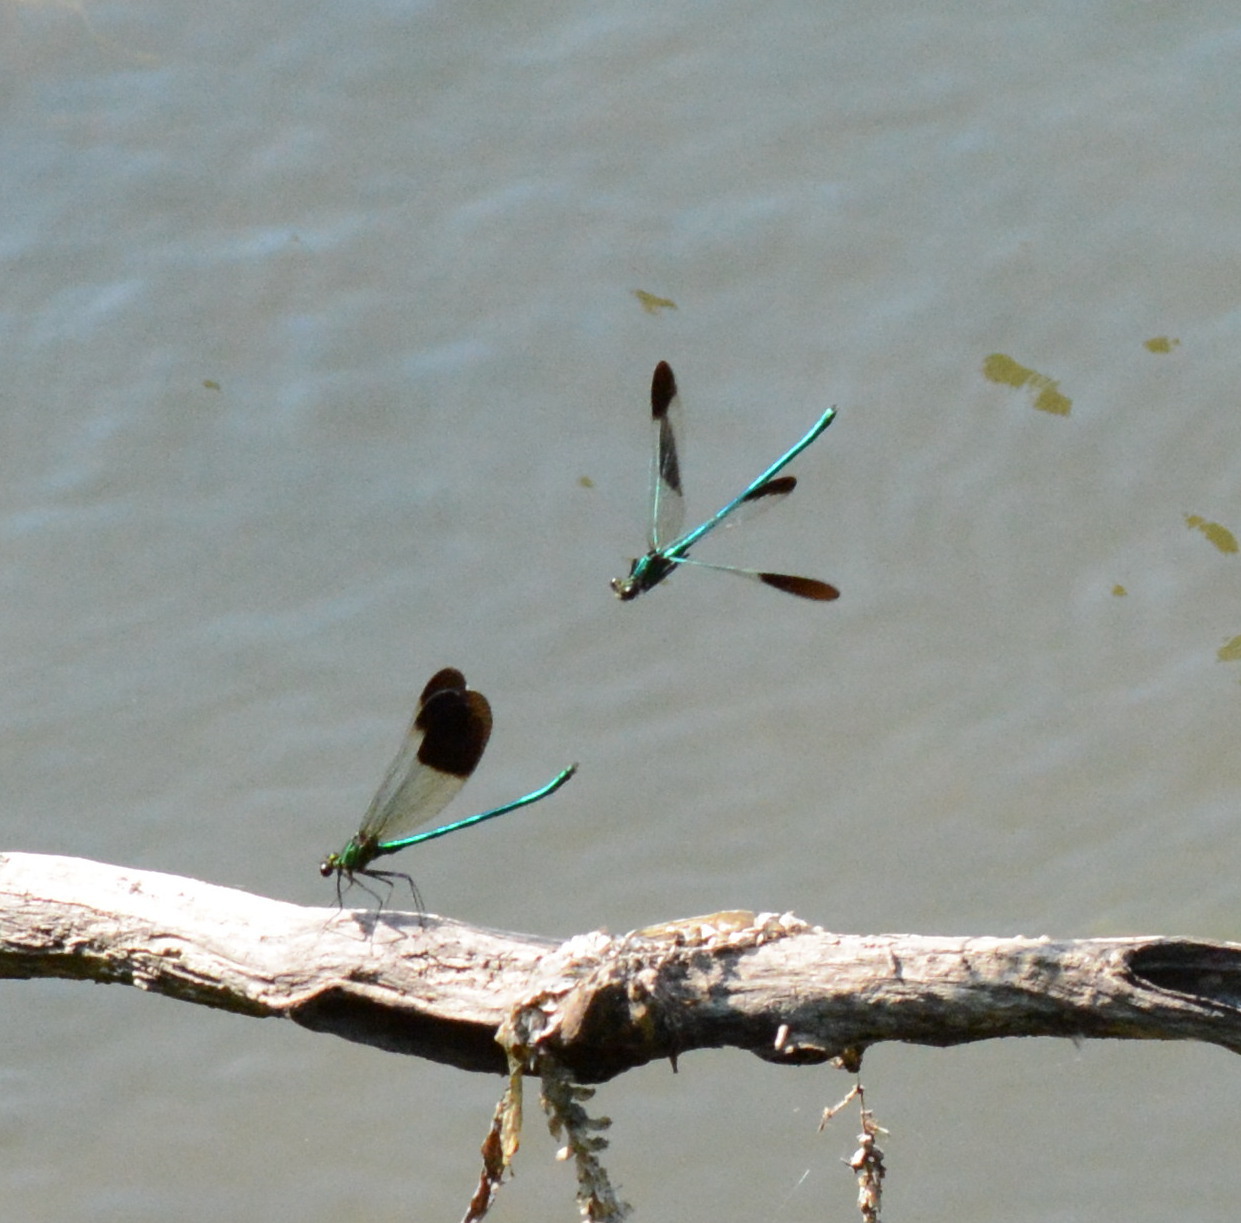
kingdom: Animalia
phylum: Arthropoda
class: Insecta
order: Odonata
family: Calopterygidae
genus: Calopteryx
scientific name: Calopteryx aequabilis
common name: River jewelwing
